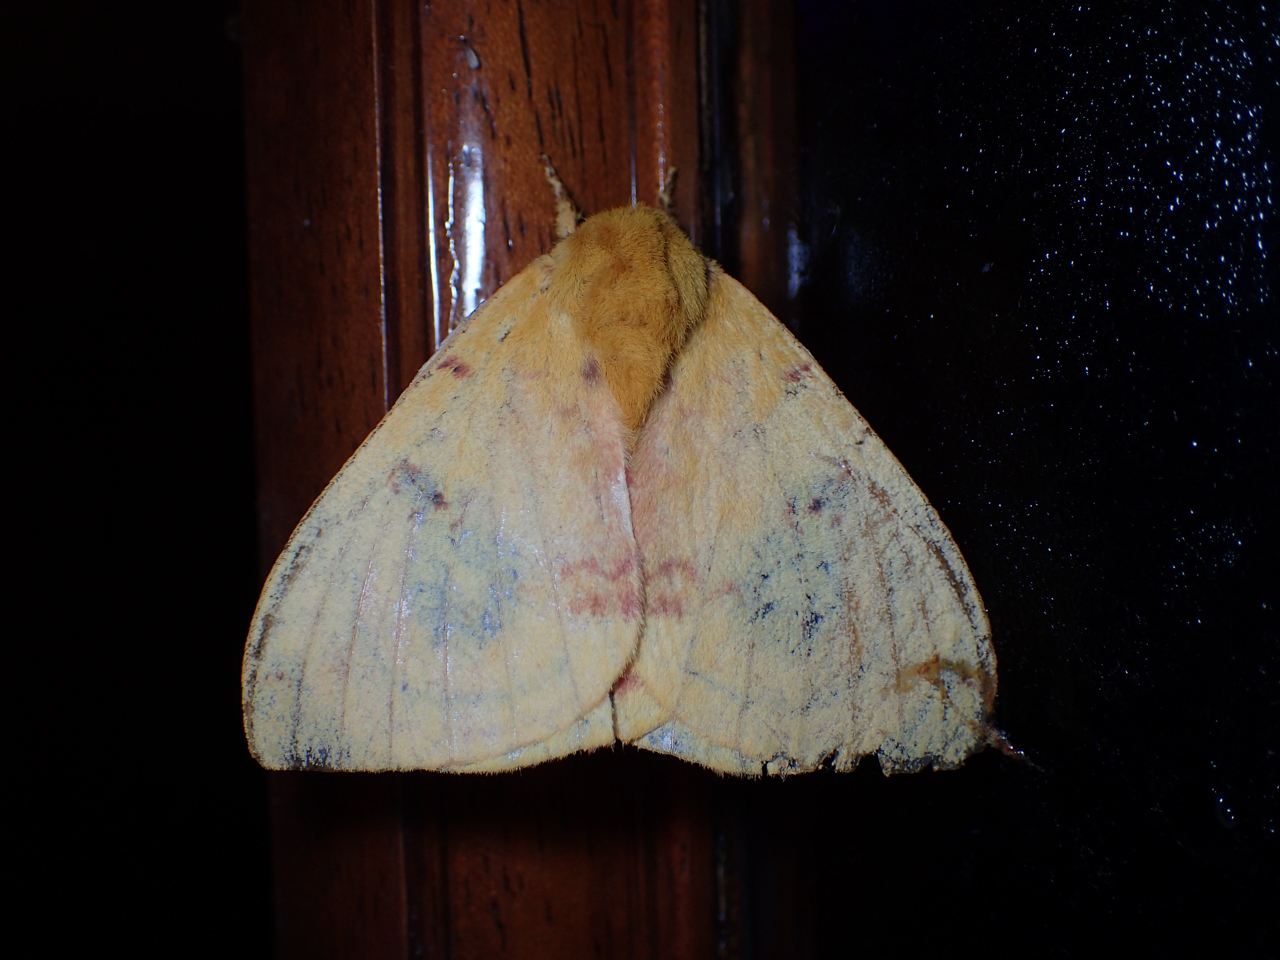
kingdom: Animalia
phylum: Arthropoda
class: Insecta
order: Lepidoptera
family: Saturniidae
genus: Automeris
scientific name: Automeris io
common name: Io moth
